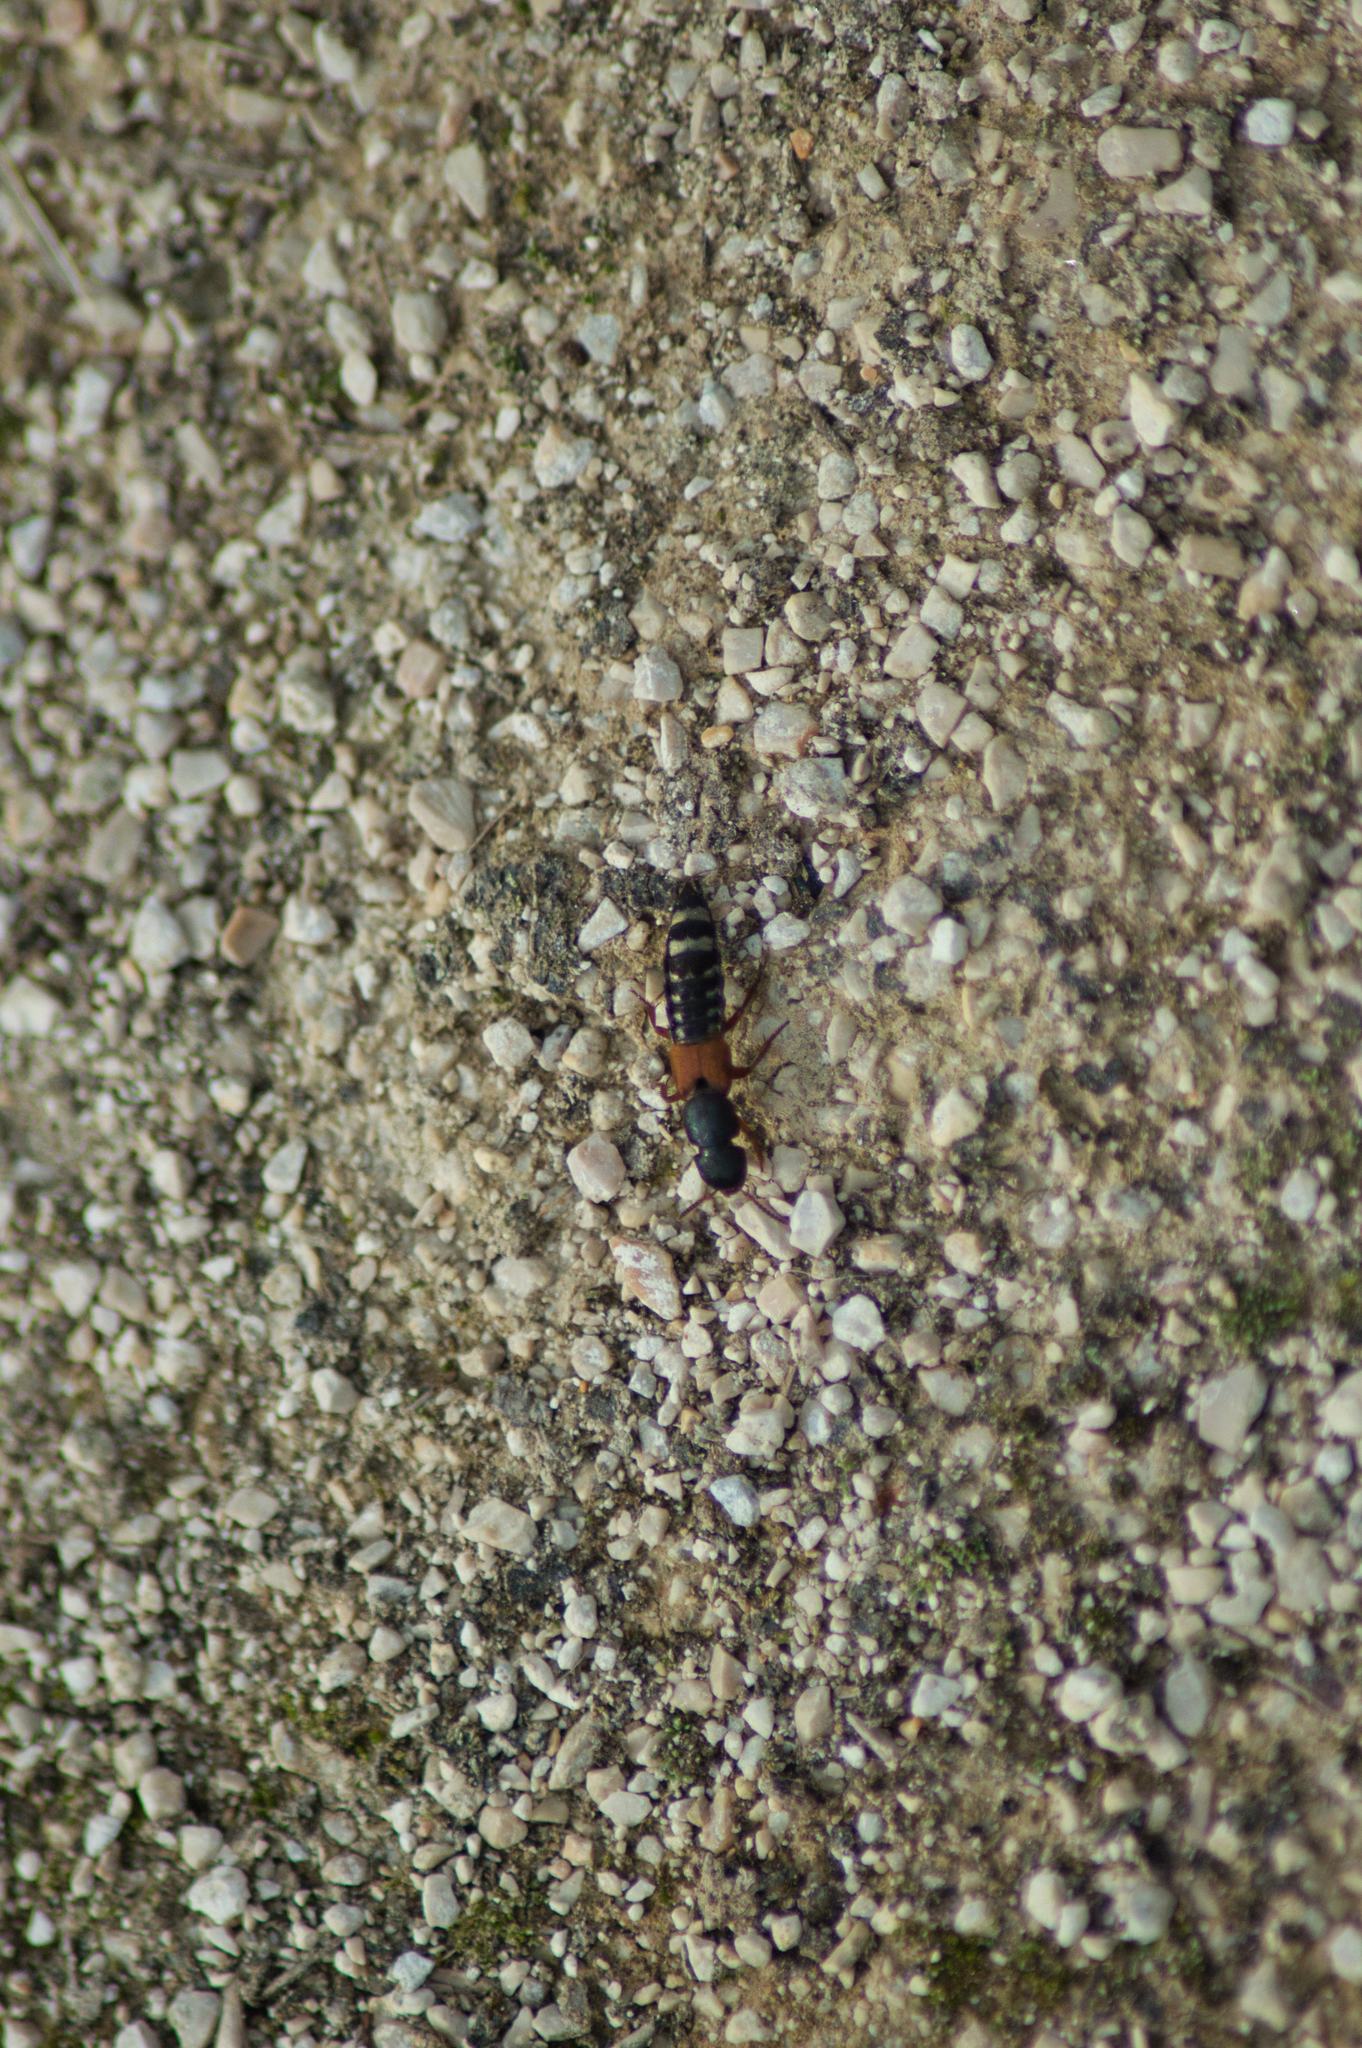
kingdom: Animalia
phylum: Arthropoda
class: Insecta
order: Coleoptera
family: Staphylinidae
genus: Platydracus
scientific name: Platydracus stercorarius
